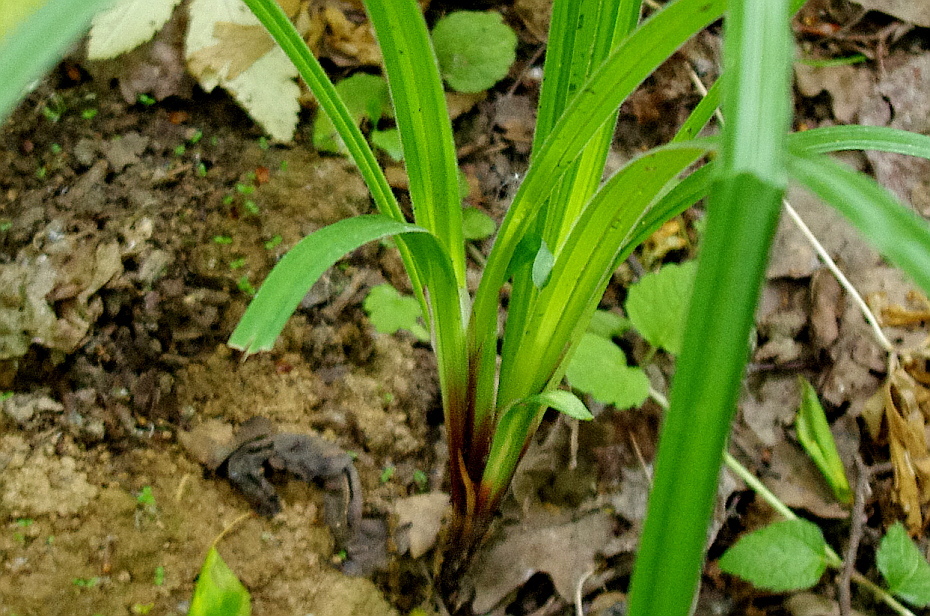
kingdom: Plantae
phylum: Tracheophyta
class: Liliopsida
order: Poales
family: Cyperaceae
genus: Carex
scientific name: Carex pilosa
